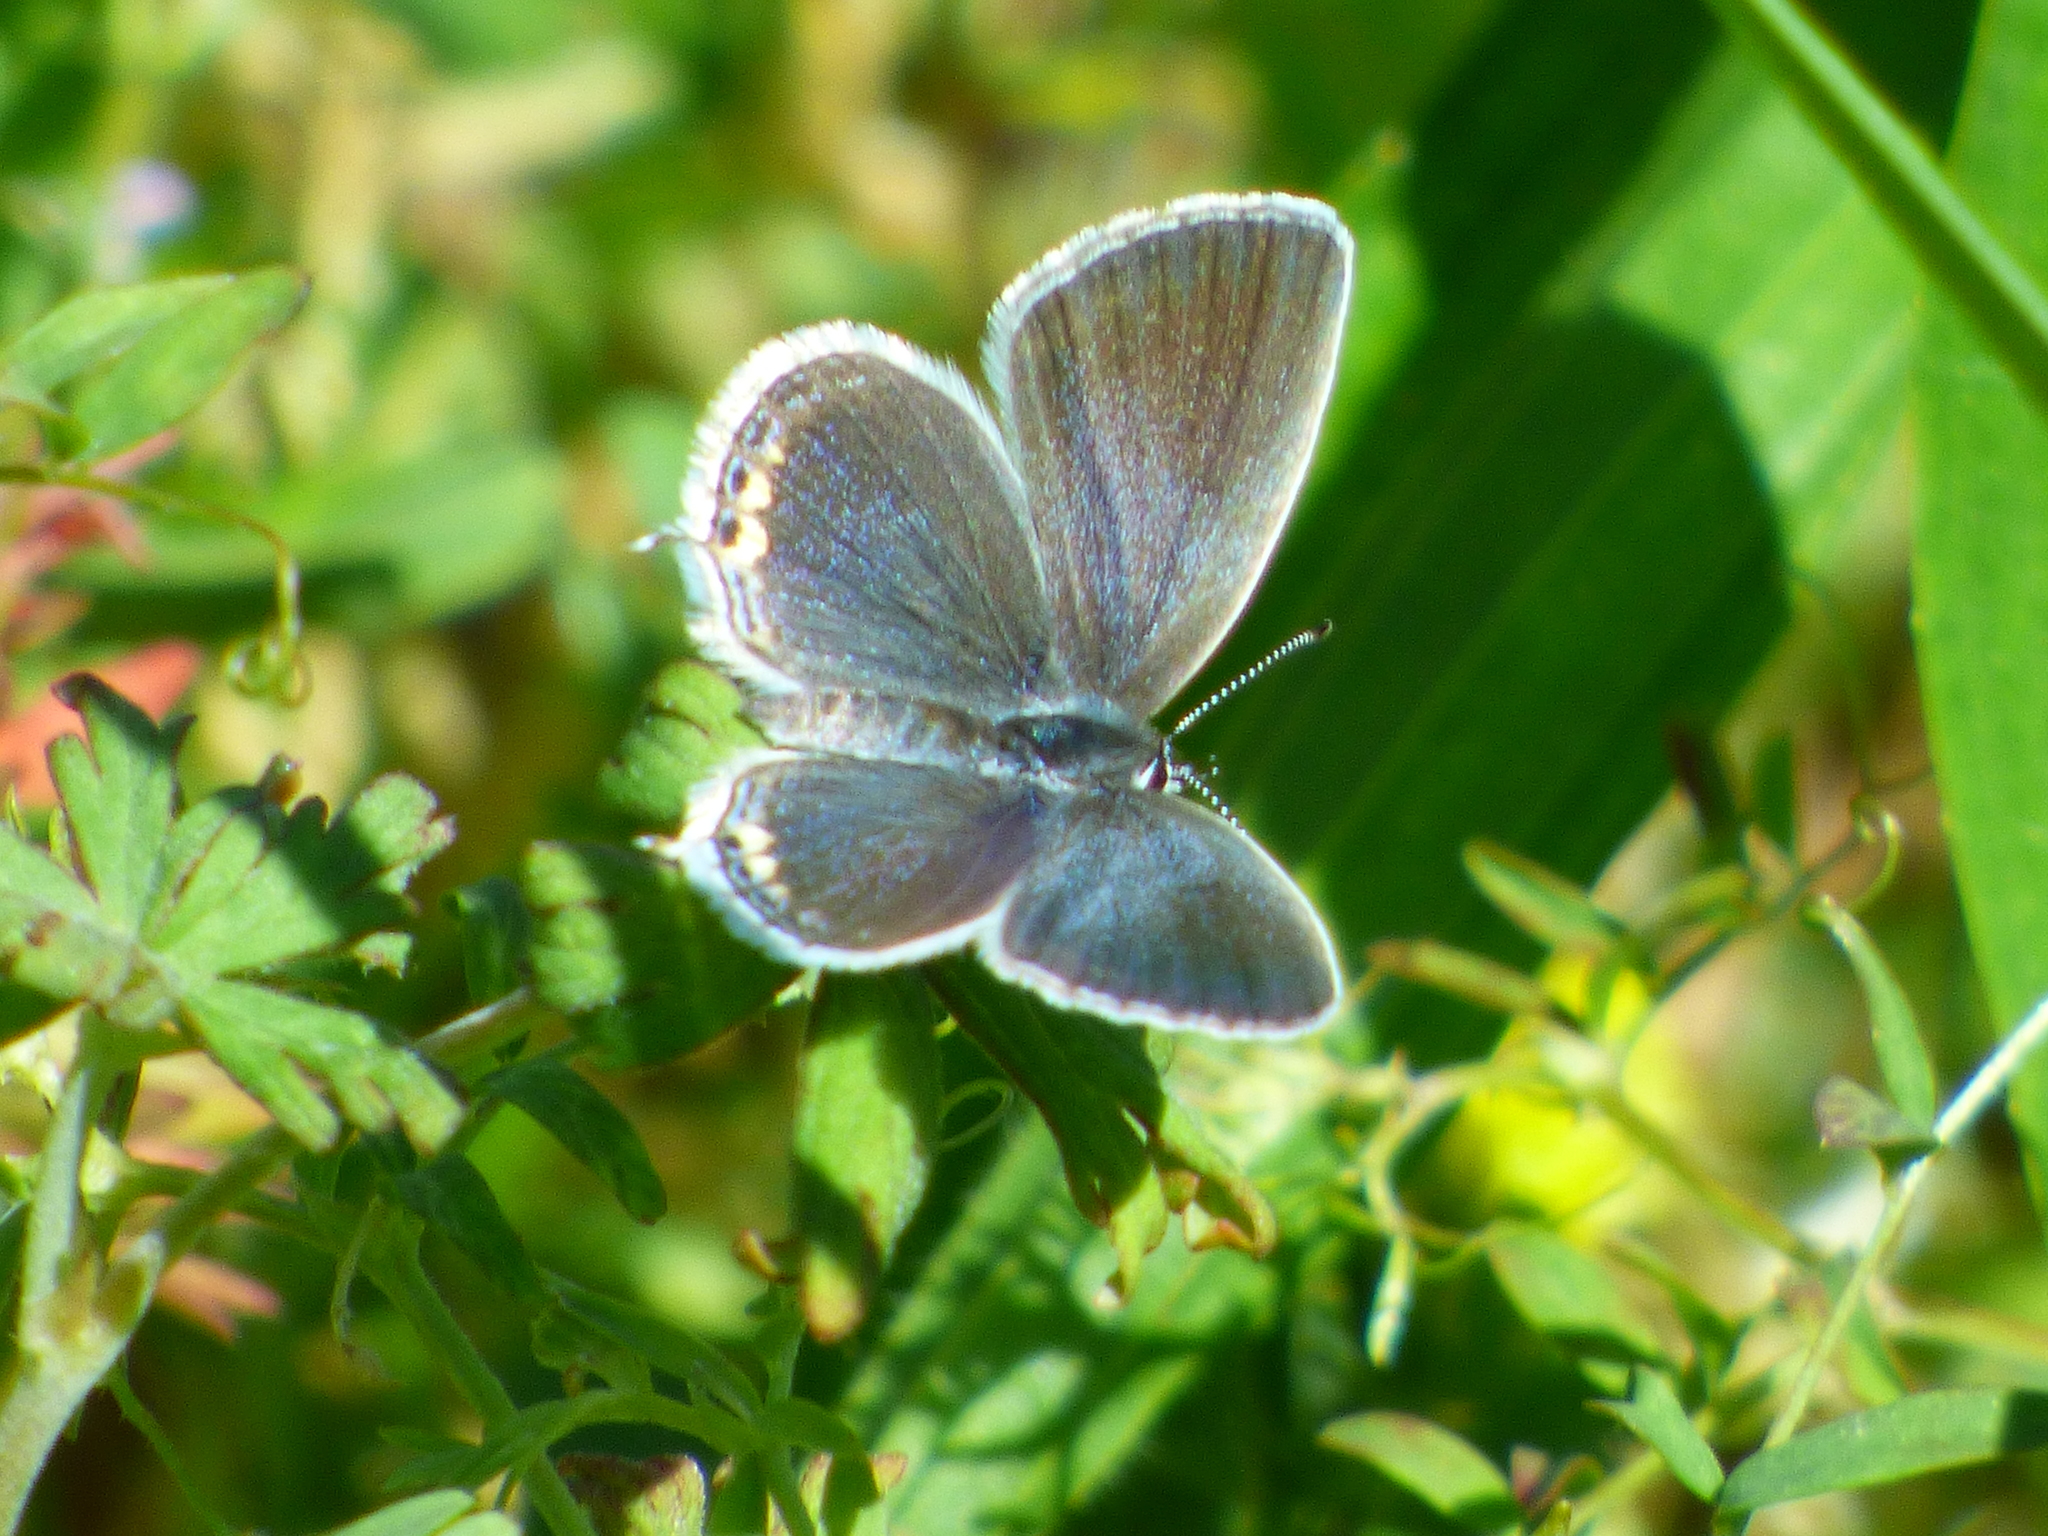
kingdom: Animalia
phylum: Arthropoda
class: Insecta
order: Lepidoptera
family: Lycaenidae
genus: Elkalyce
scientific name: Elkalyce comyntas
